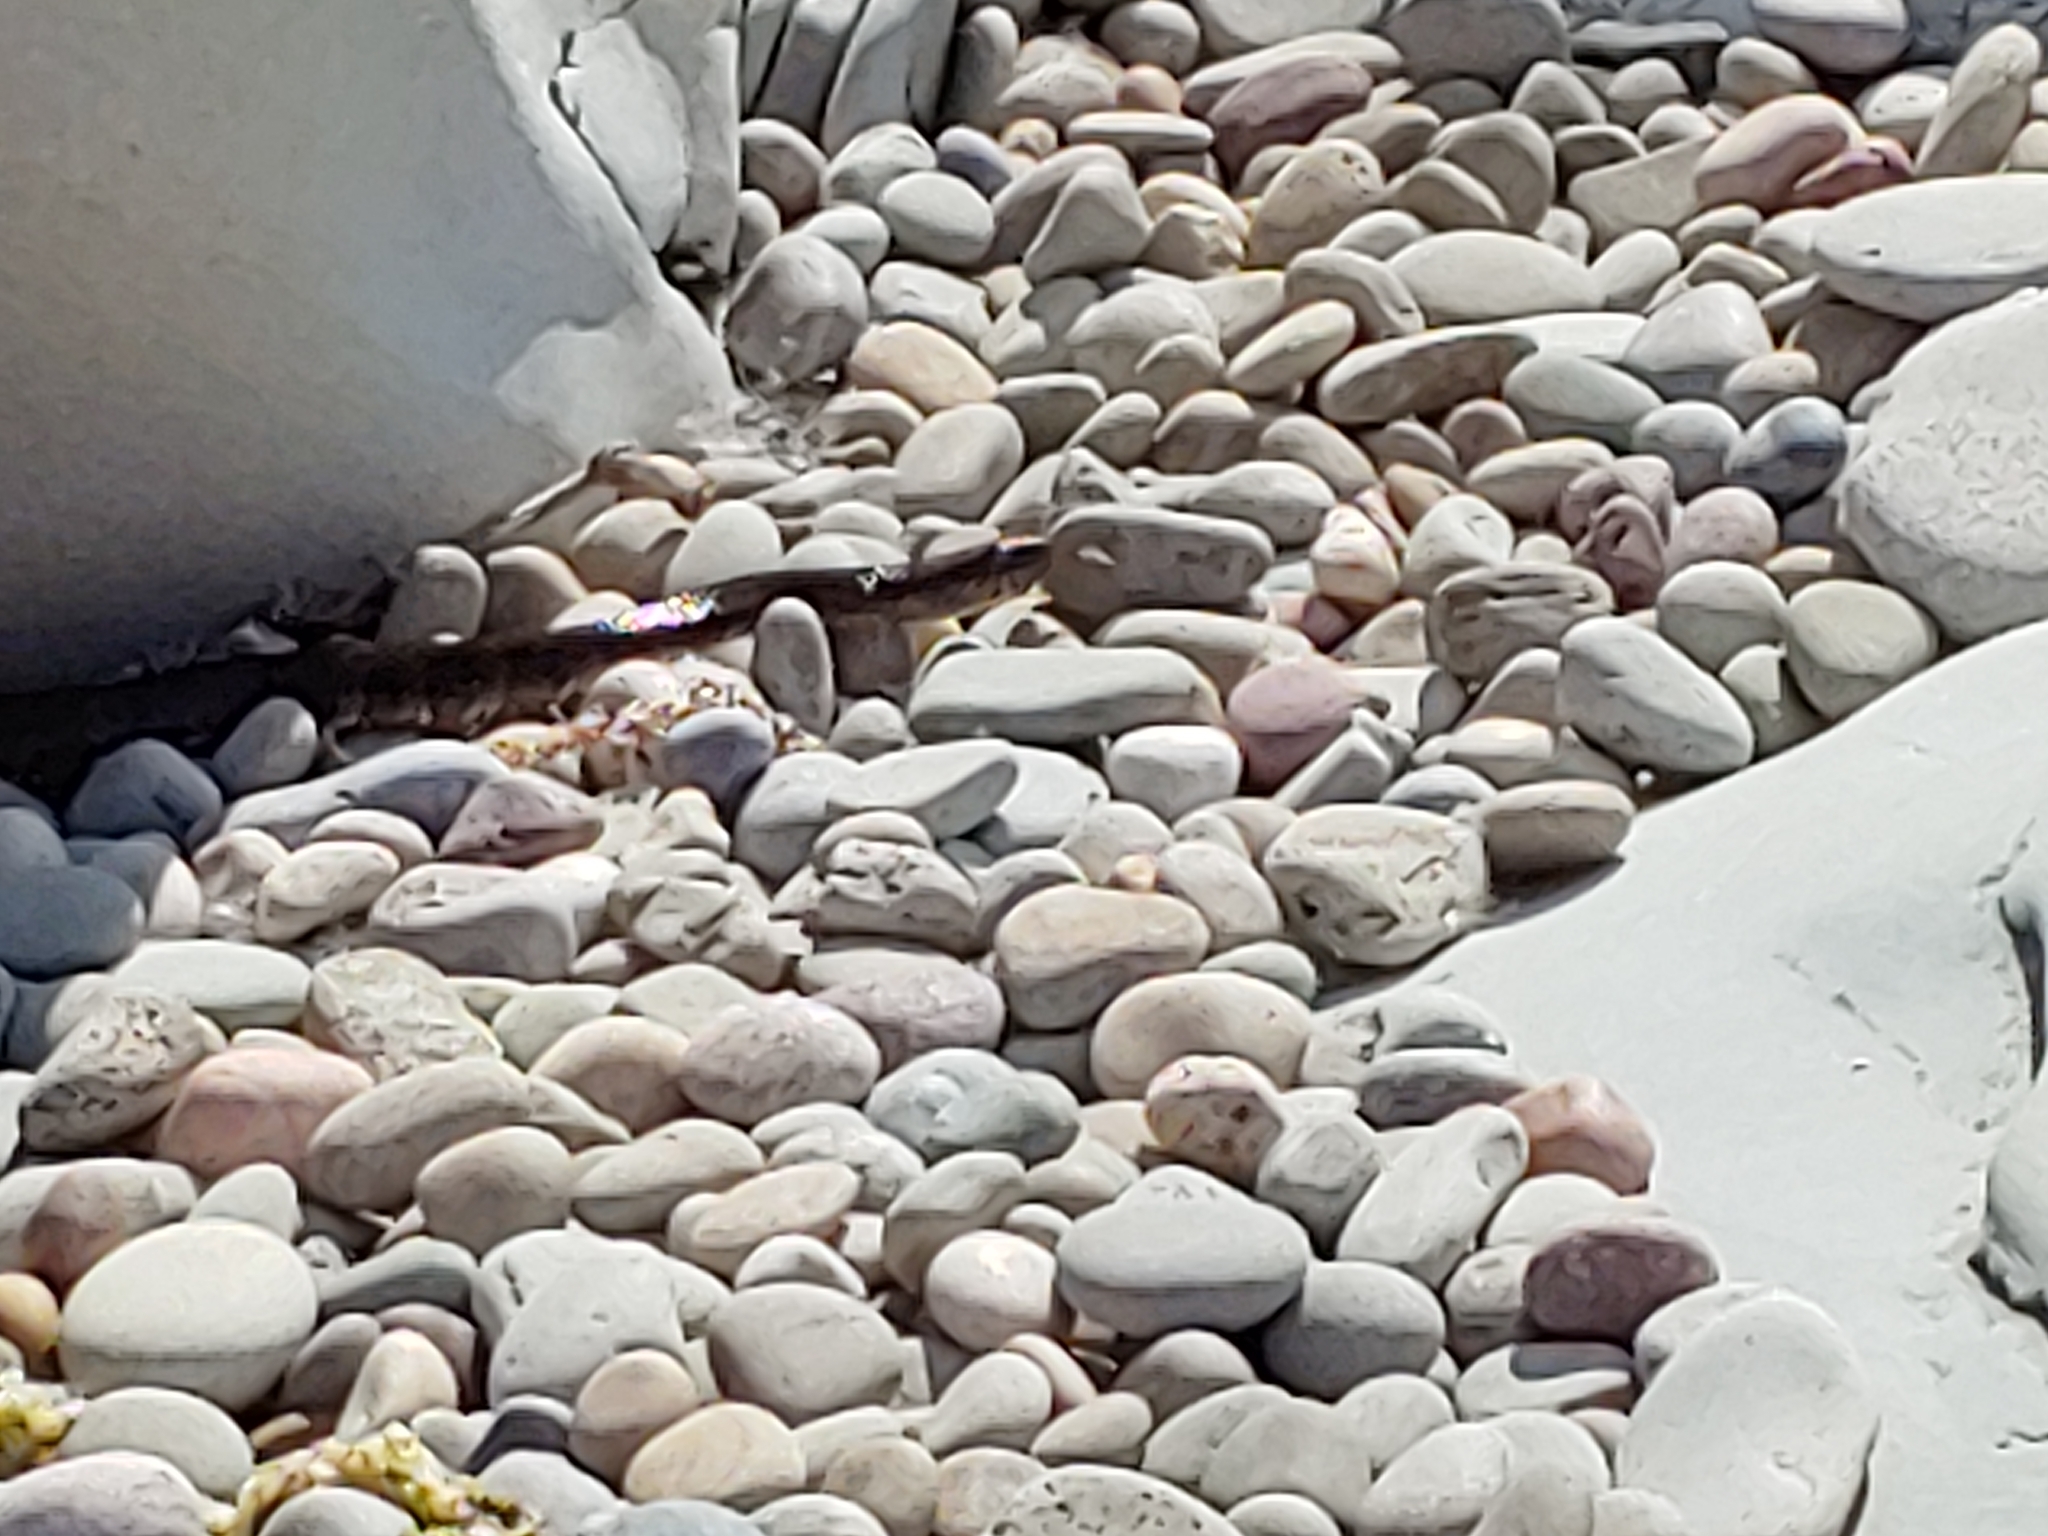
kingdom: Animalia
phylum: Chordata
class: Squamata
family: Colubridae
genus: Nerodia
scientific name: Nerodia sipedon
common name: Northern water snake
